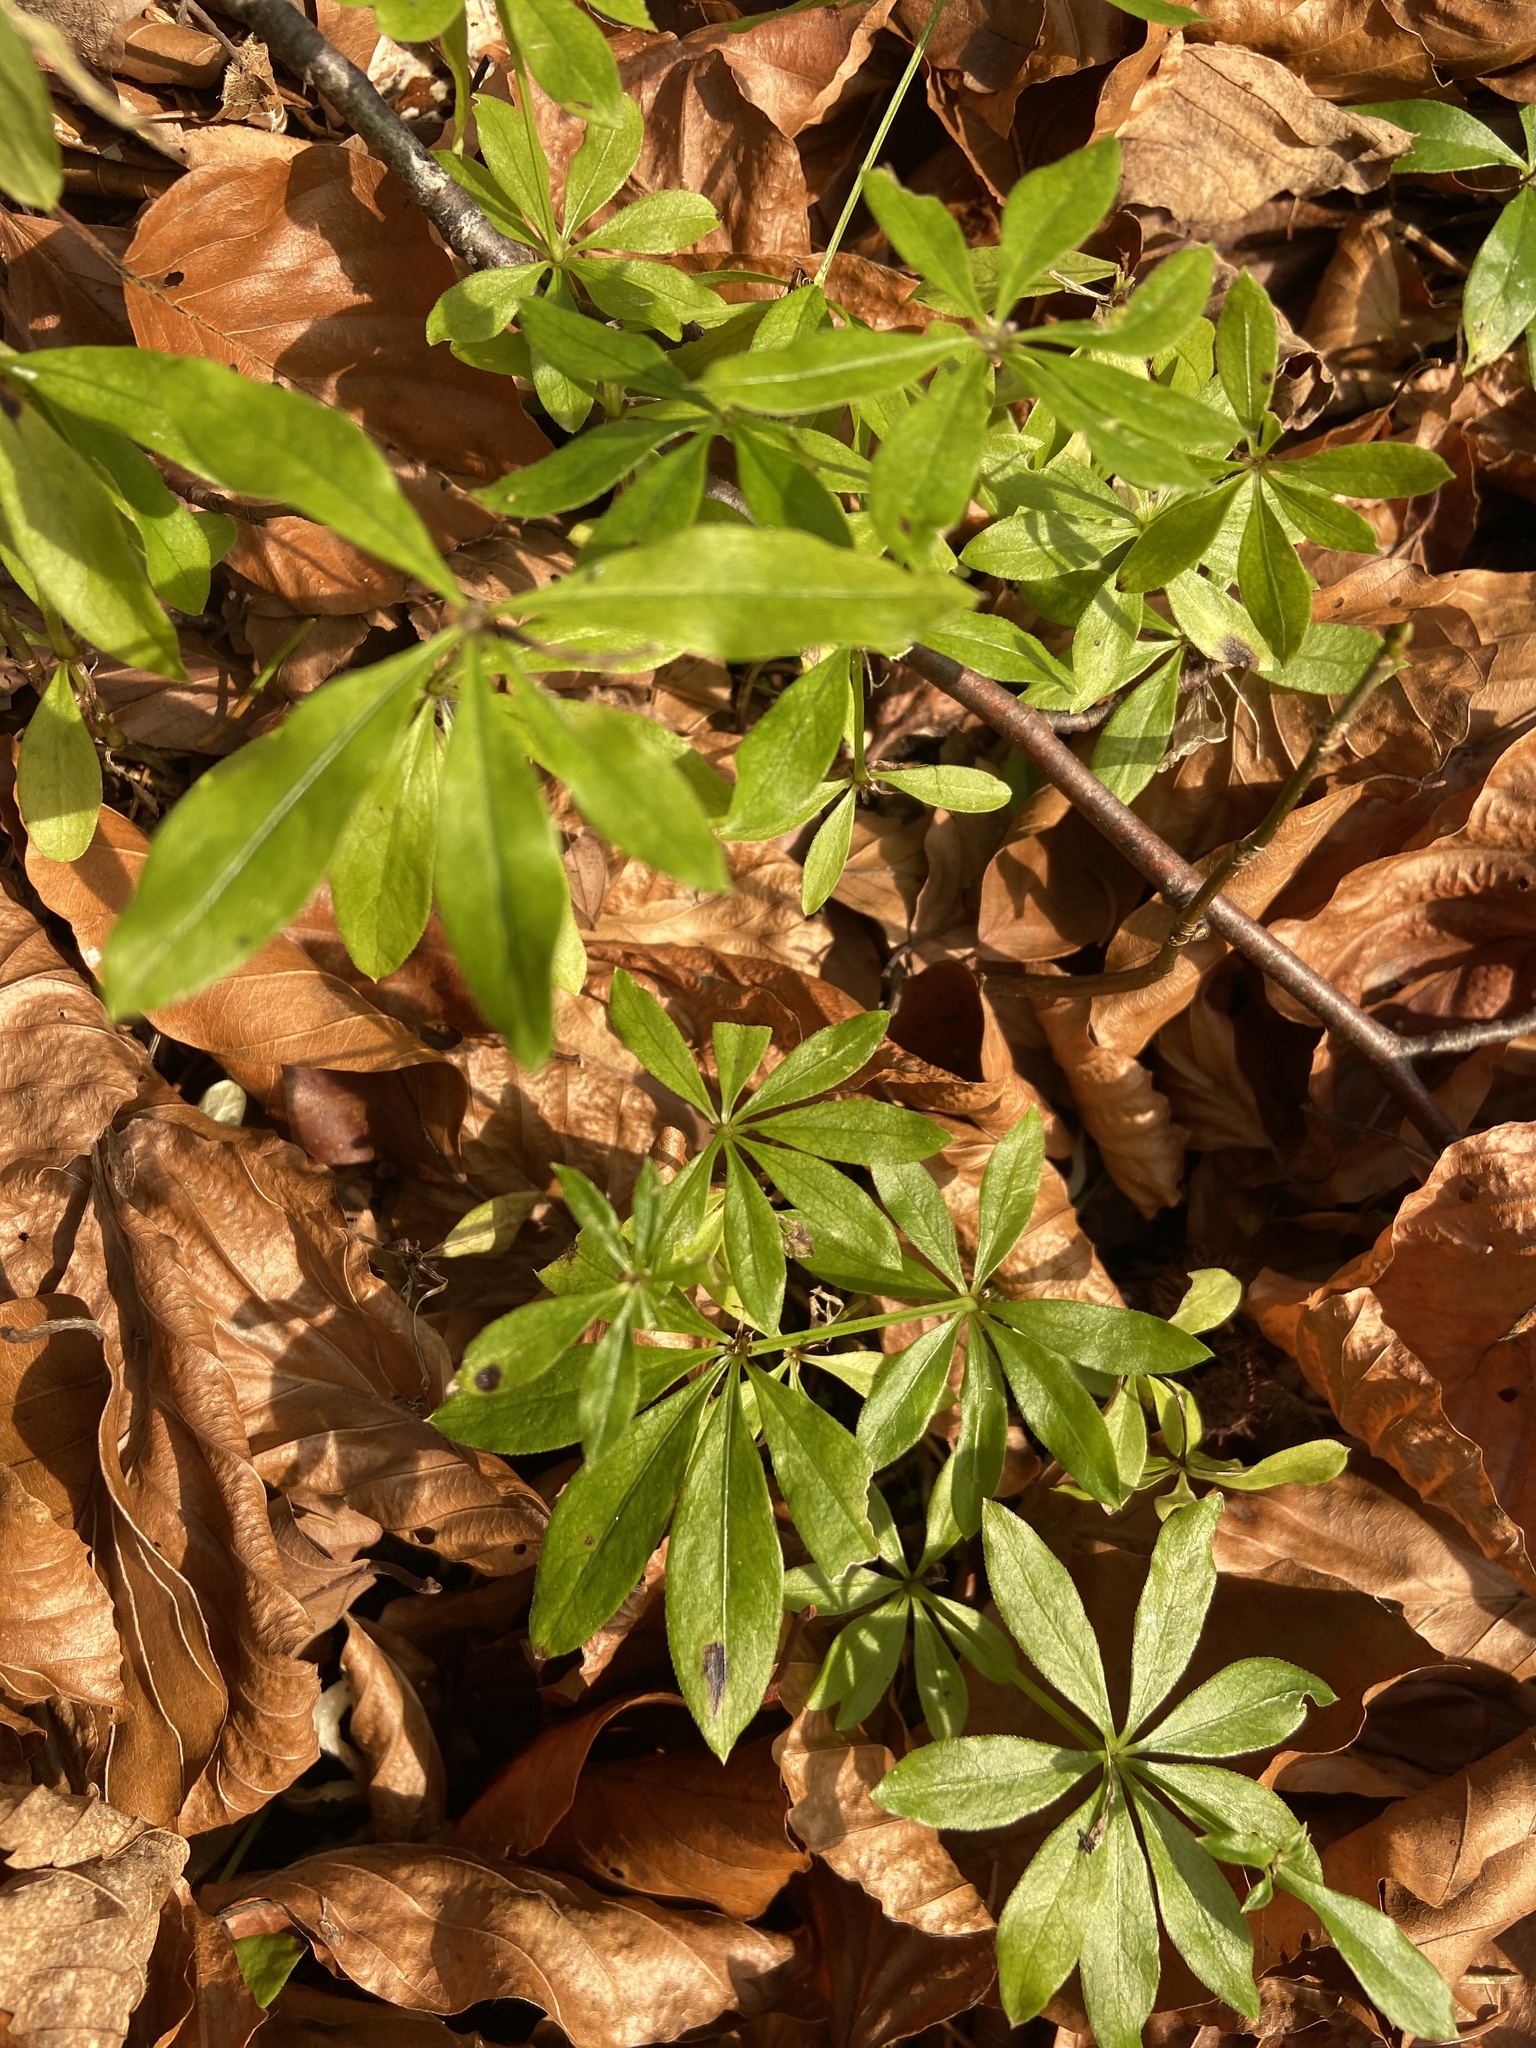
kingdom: Plantae
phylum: Tracheophyta
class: Magnoliopsida
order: Gentianales
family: Rubiaceae
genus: Galium
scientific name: Galium odoratum
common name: Sweet woodruff
